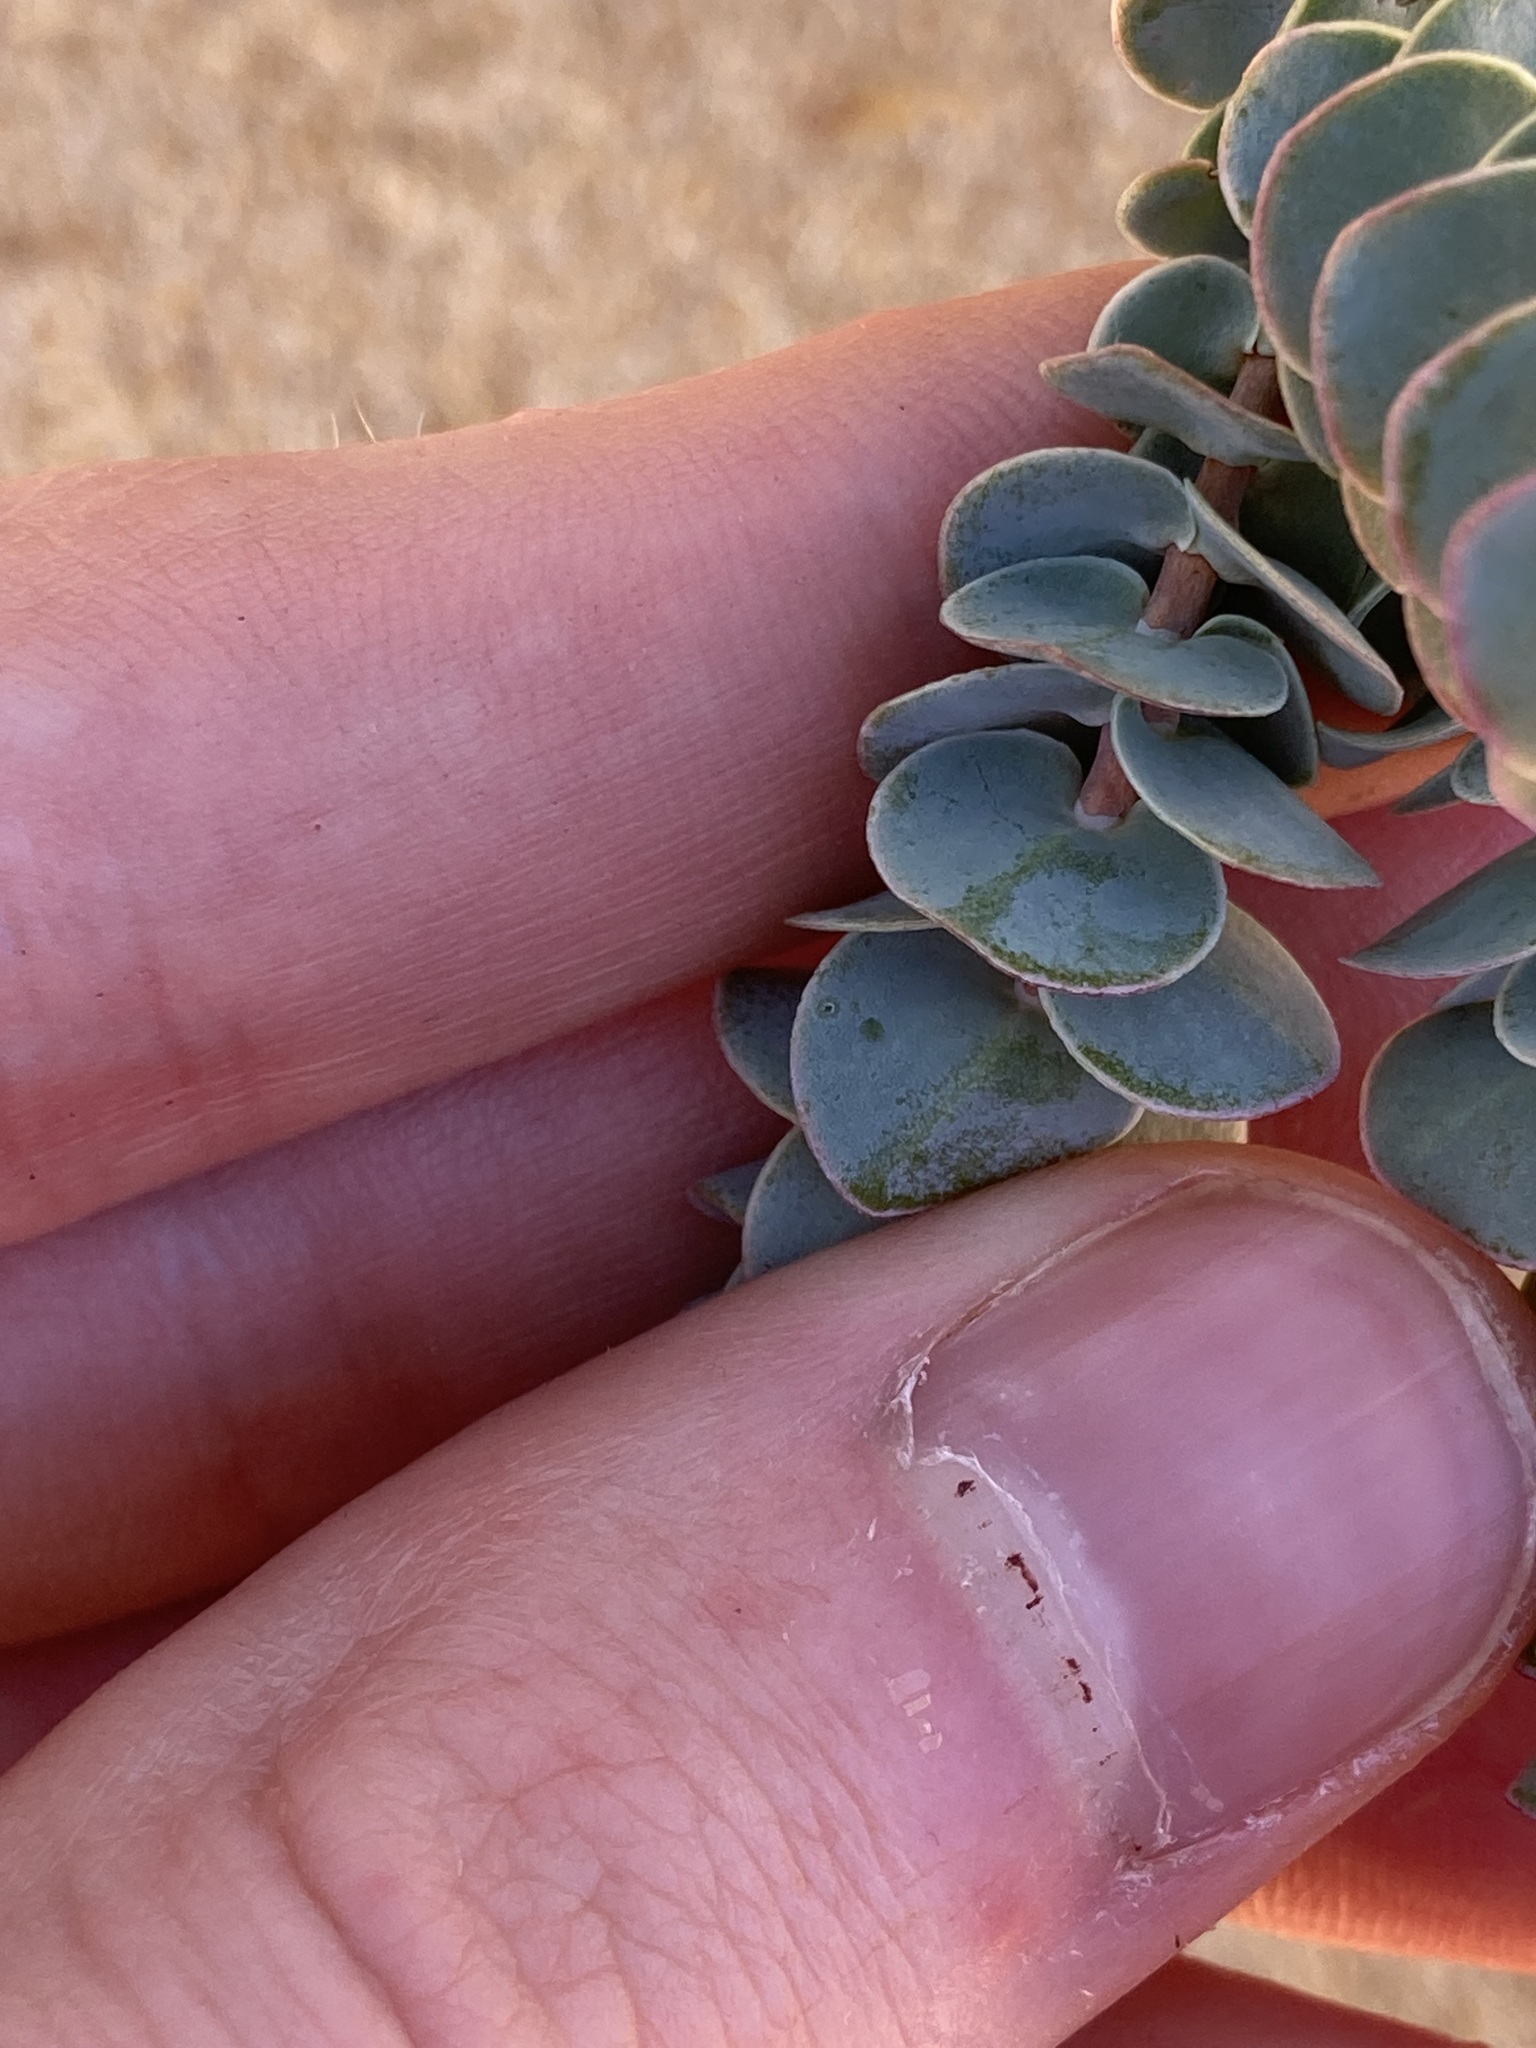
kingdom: Plantae
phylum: Tracheophyta
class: Magnoliopsida
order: Myrtales
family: Myrtaceae
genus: Verticordia
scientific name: Verticordia oculata
